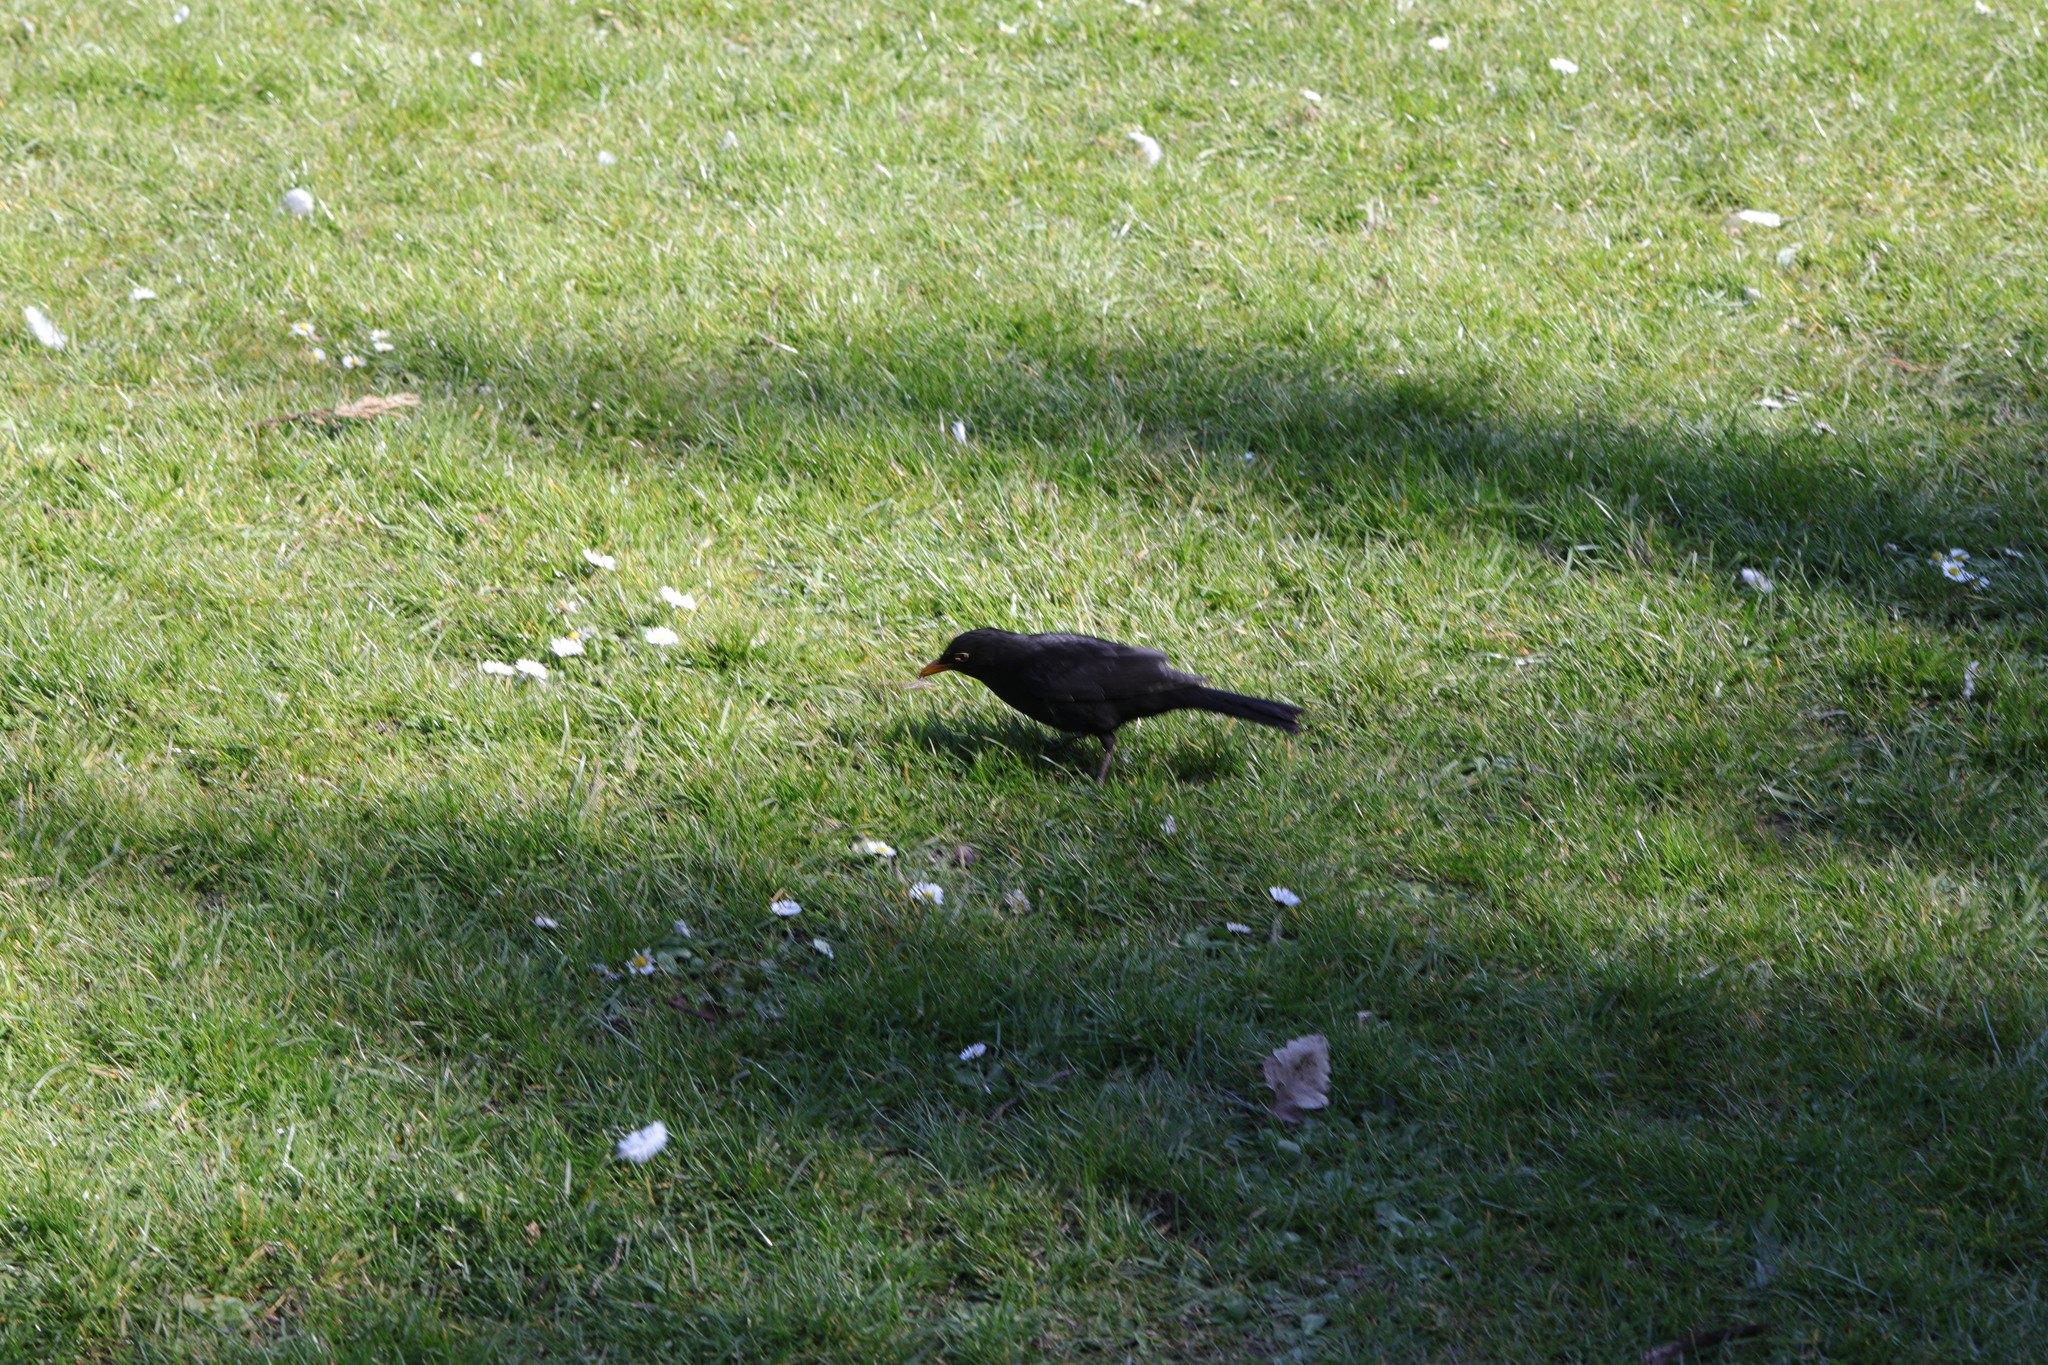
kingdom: Animalia
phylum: Chordata
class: Aves
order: Passeriformes
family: Turdidae
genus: Turdus
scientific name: Turdus merula
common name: Common blackbird
